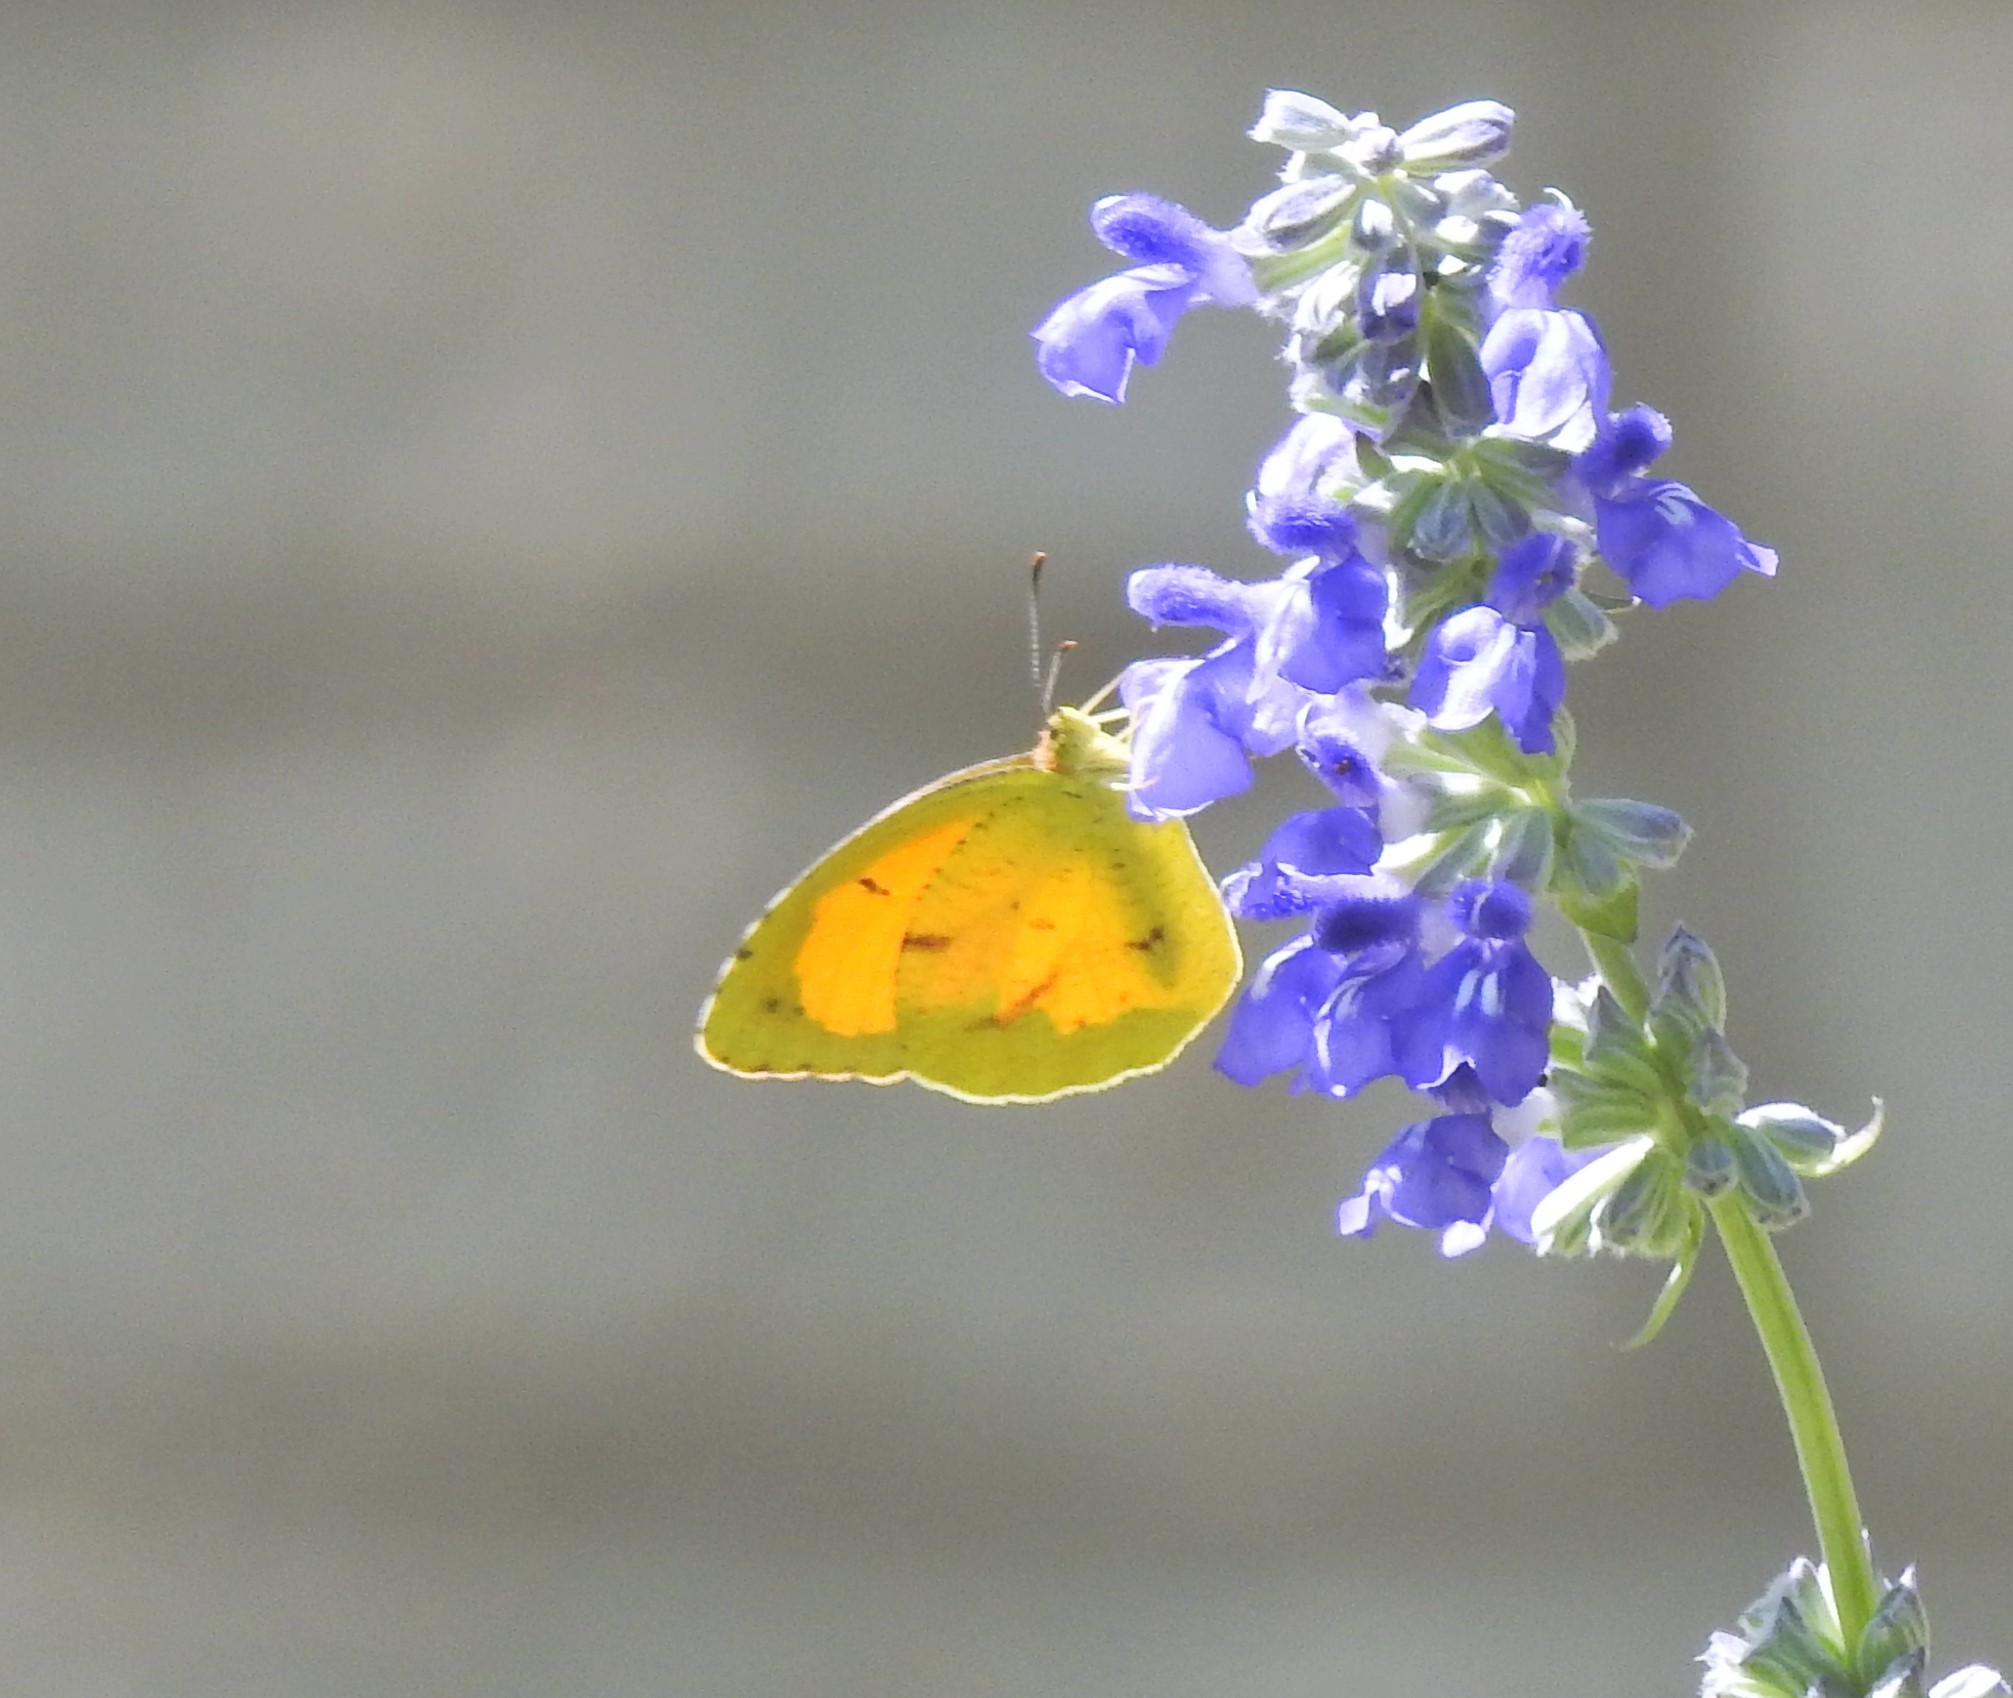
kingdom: Animalia
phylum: Arthropoda
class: Insecta
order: Lepidoptera
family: Pieridae
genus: Abaeis
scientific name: Abaeis nicippe
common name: Sleepy orange
